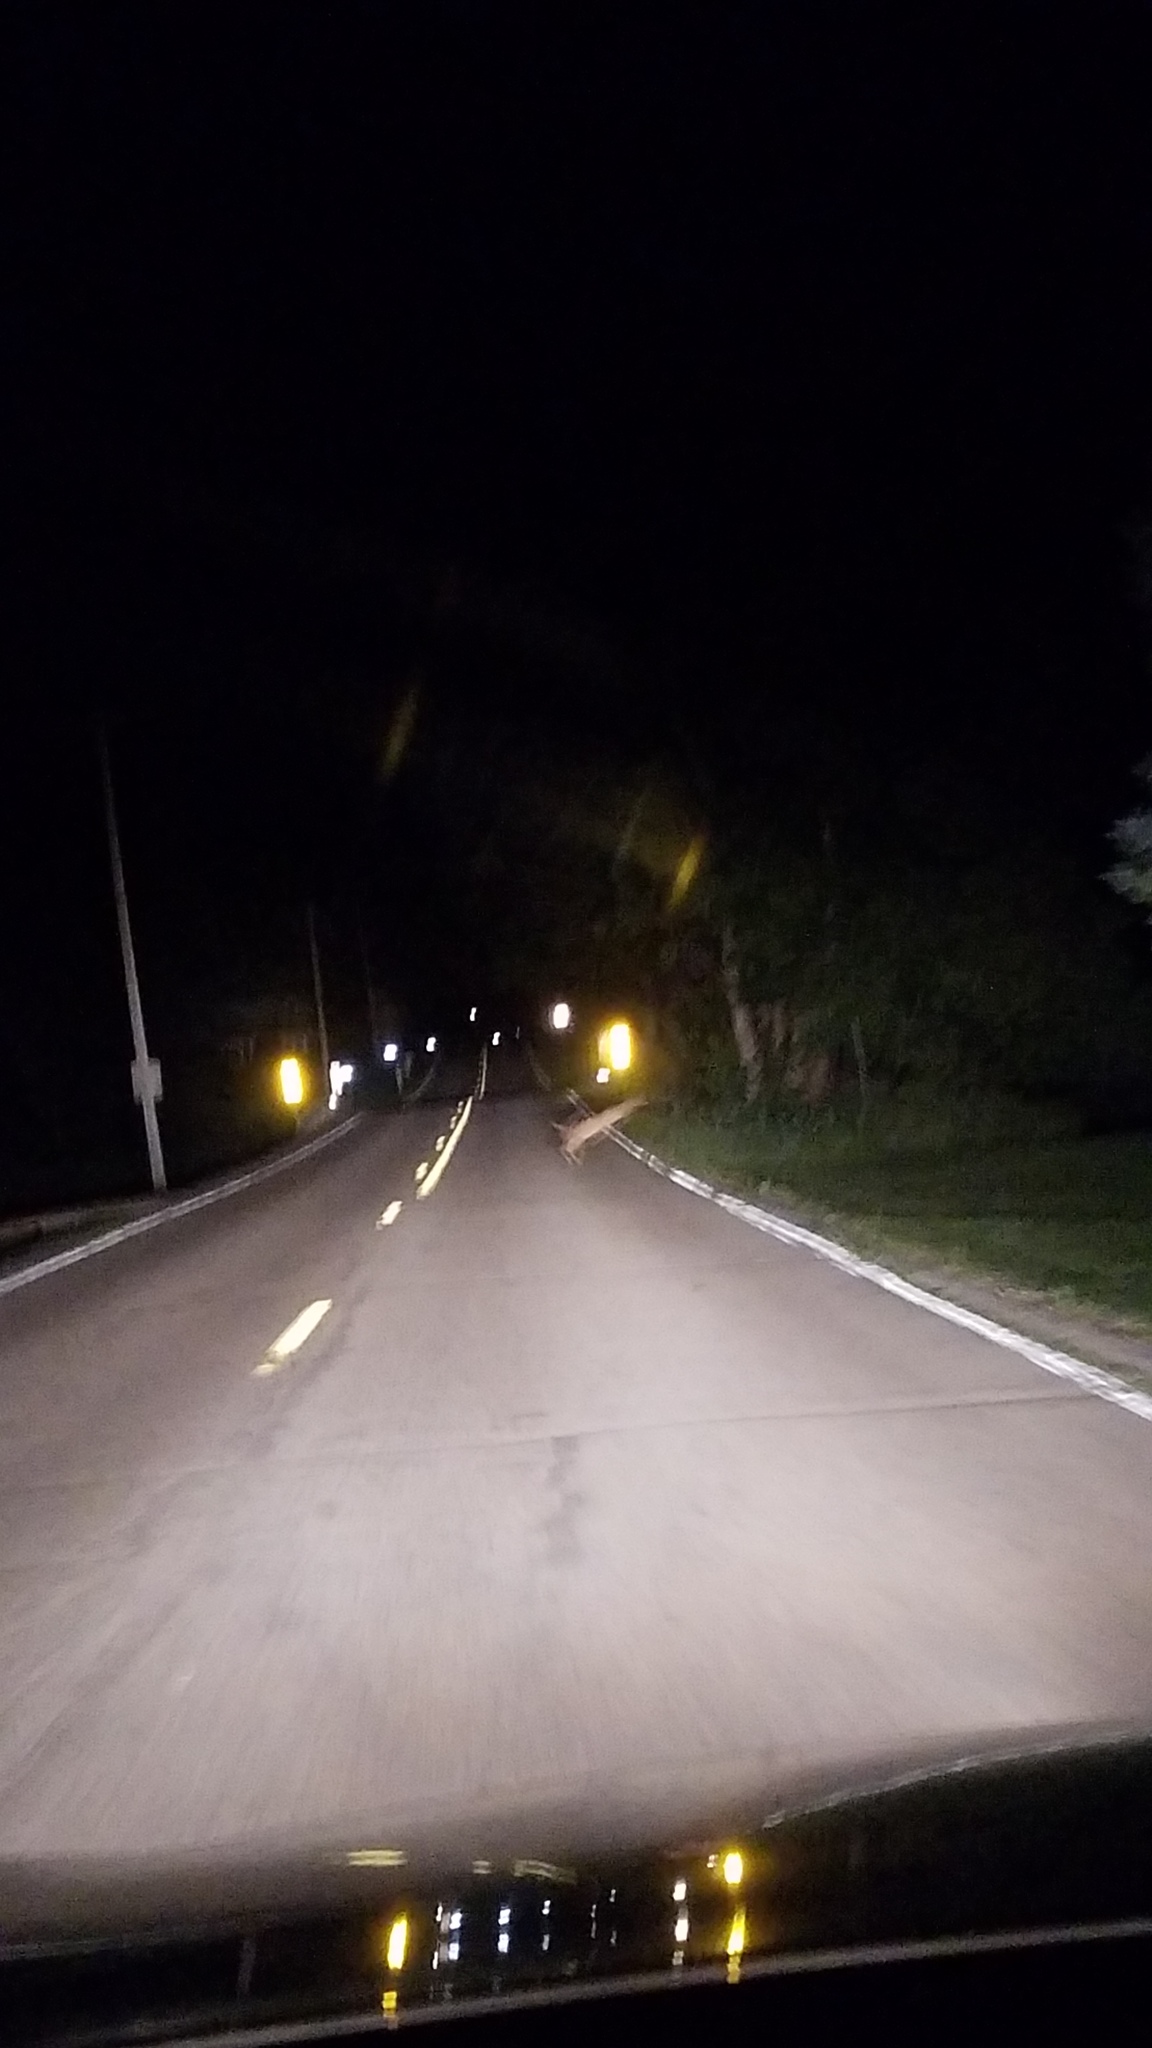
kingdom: Animalia
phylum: Chordata
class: Mammalia
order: Artiodactyla
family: Cervidae
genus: Odocoileus
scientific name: Odocoileus virginianus
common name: White-tailed deer
